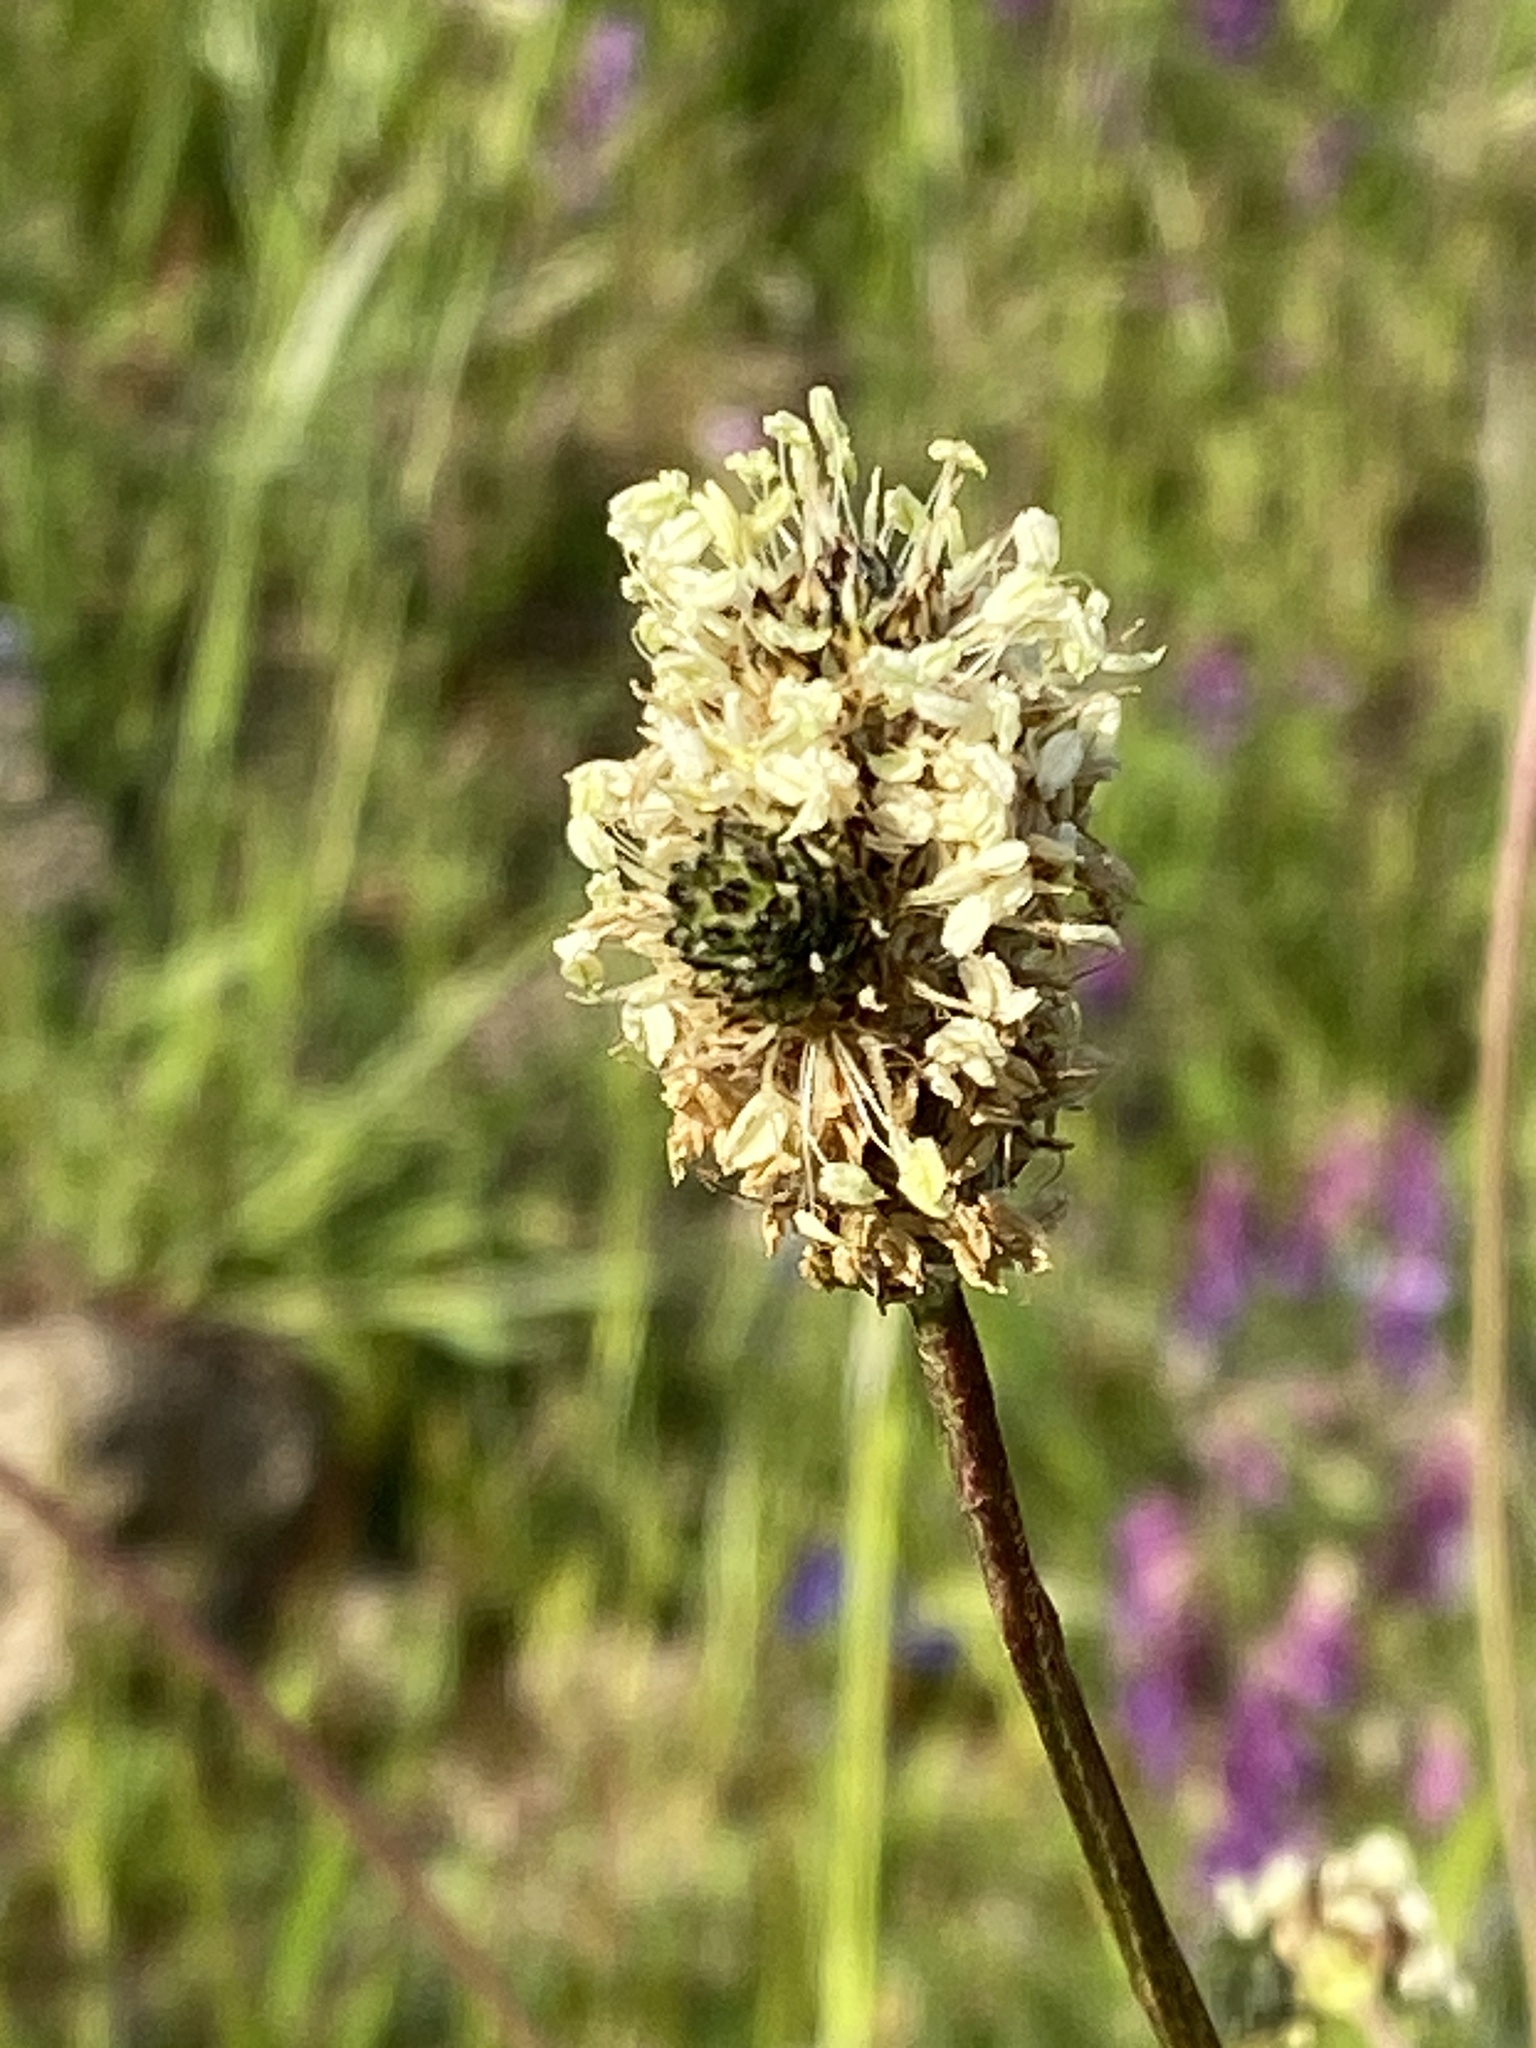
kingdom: Plantae
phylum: Tracheophyta
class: Magnoliopsida
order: Lamiales
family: Plantaginaceae
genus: Plantago
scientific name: Plantago lanceolata
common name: Ribwort plantain
